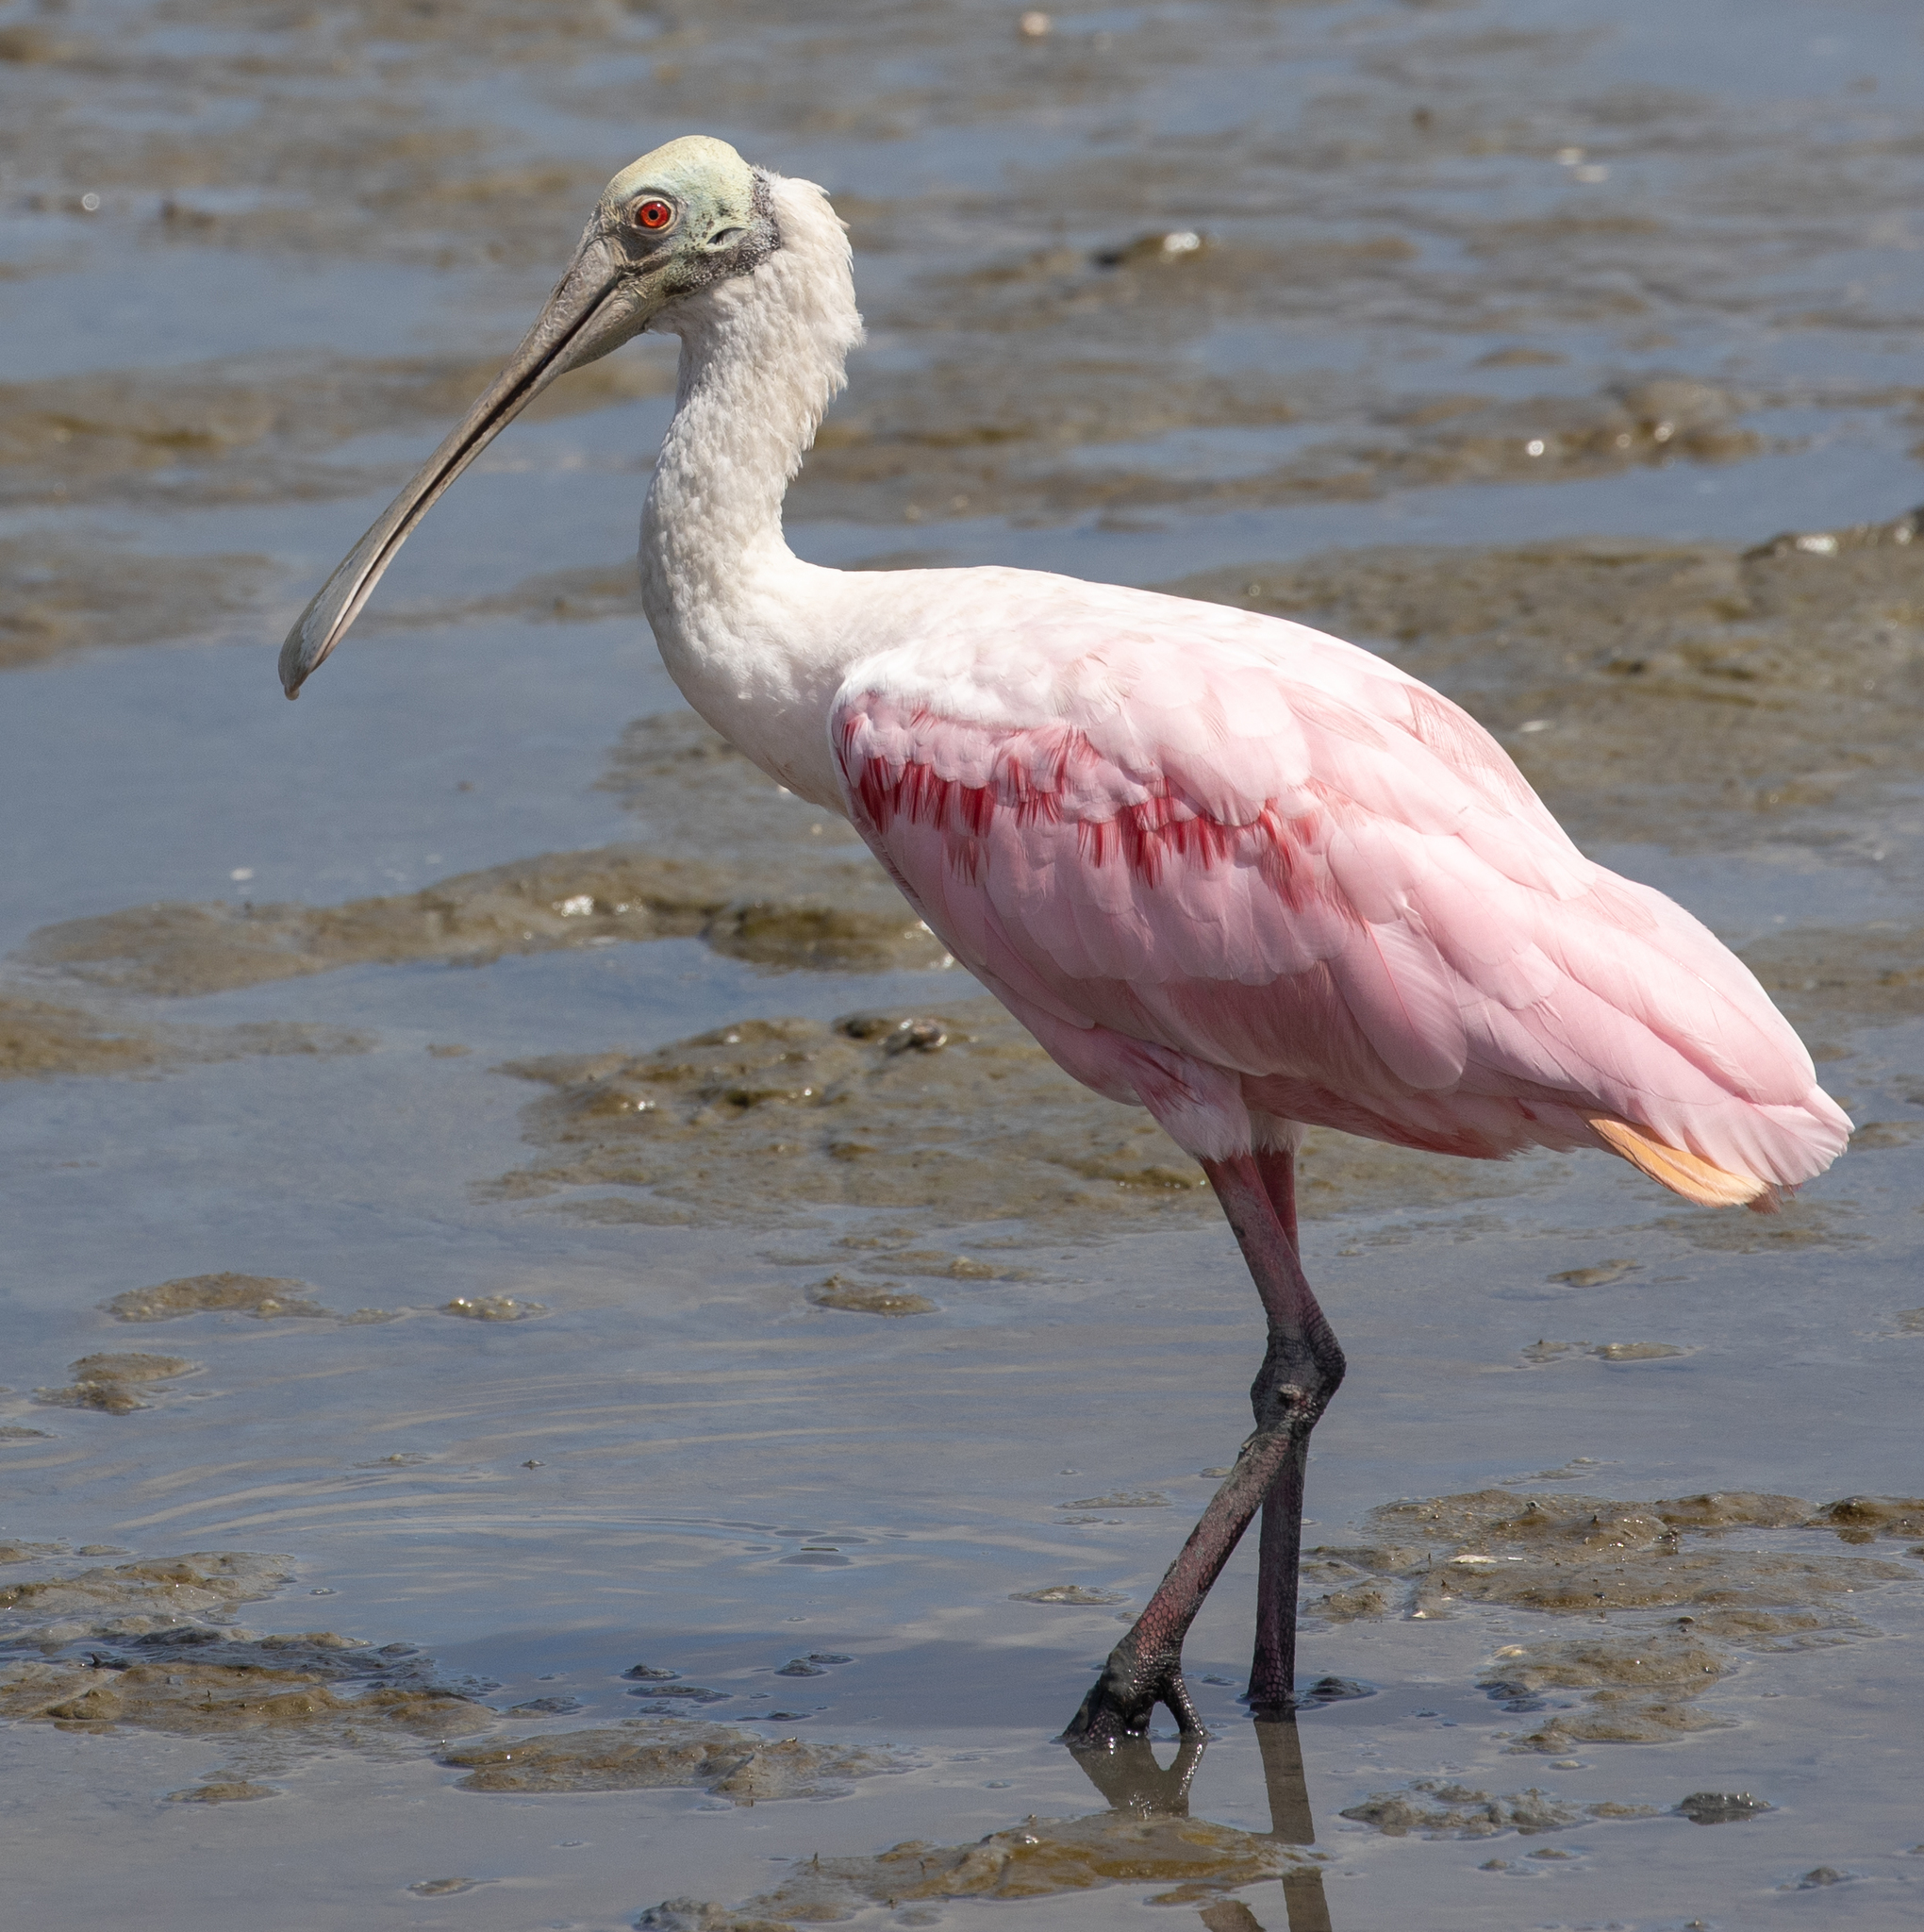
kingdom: Animalia
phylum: Chordata
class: Aves
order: Pelecaniformes
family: Threskiornithidae
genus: Platalea
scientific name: Platalea ajaja
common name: Roseate spoonbill
